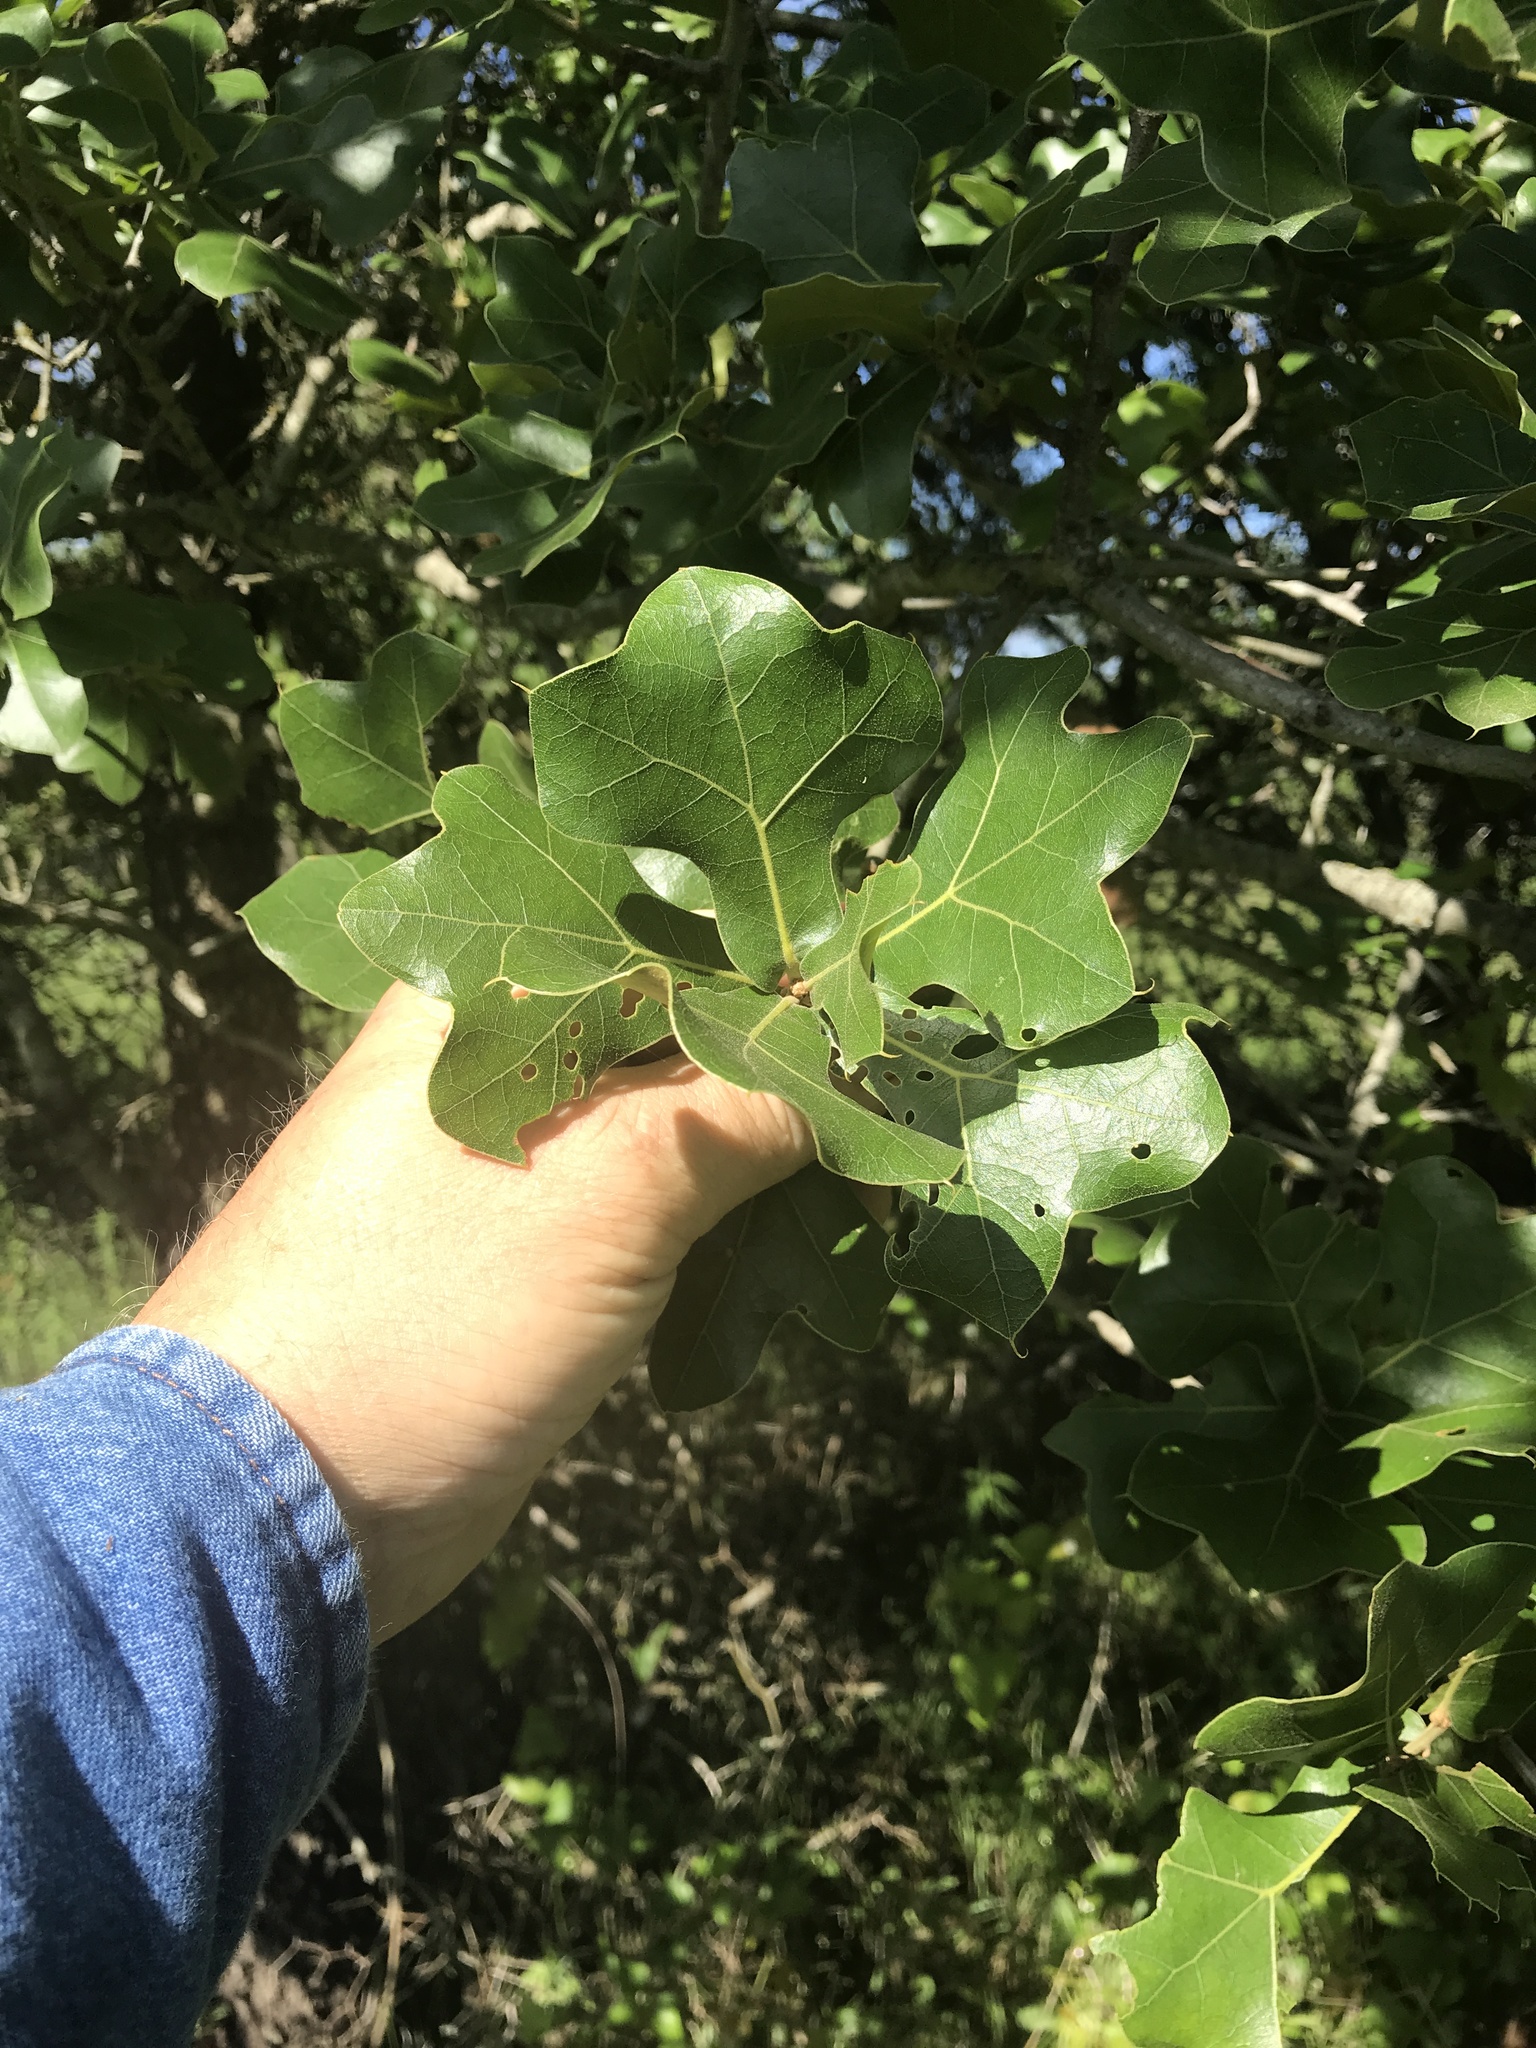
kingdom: Plantae
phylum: Tracheophyta
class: Magnoliopsida
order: Fagales
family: Fagaceae
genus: Quercus
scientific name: Quercus marilandica
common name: Blackjack oak
